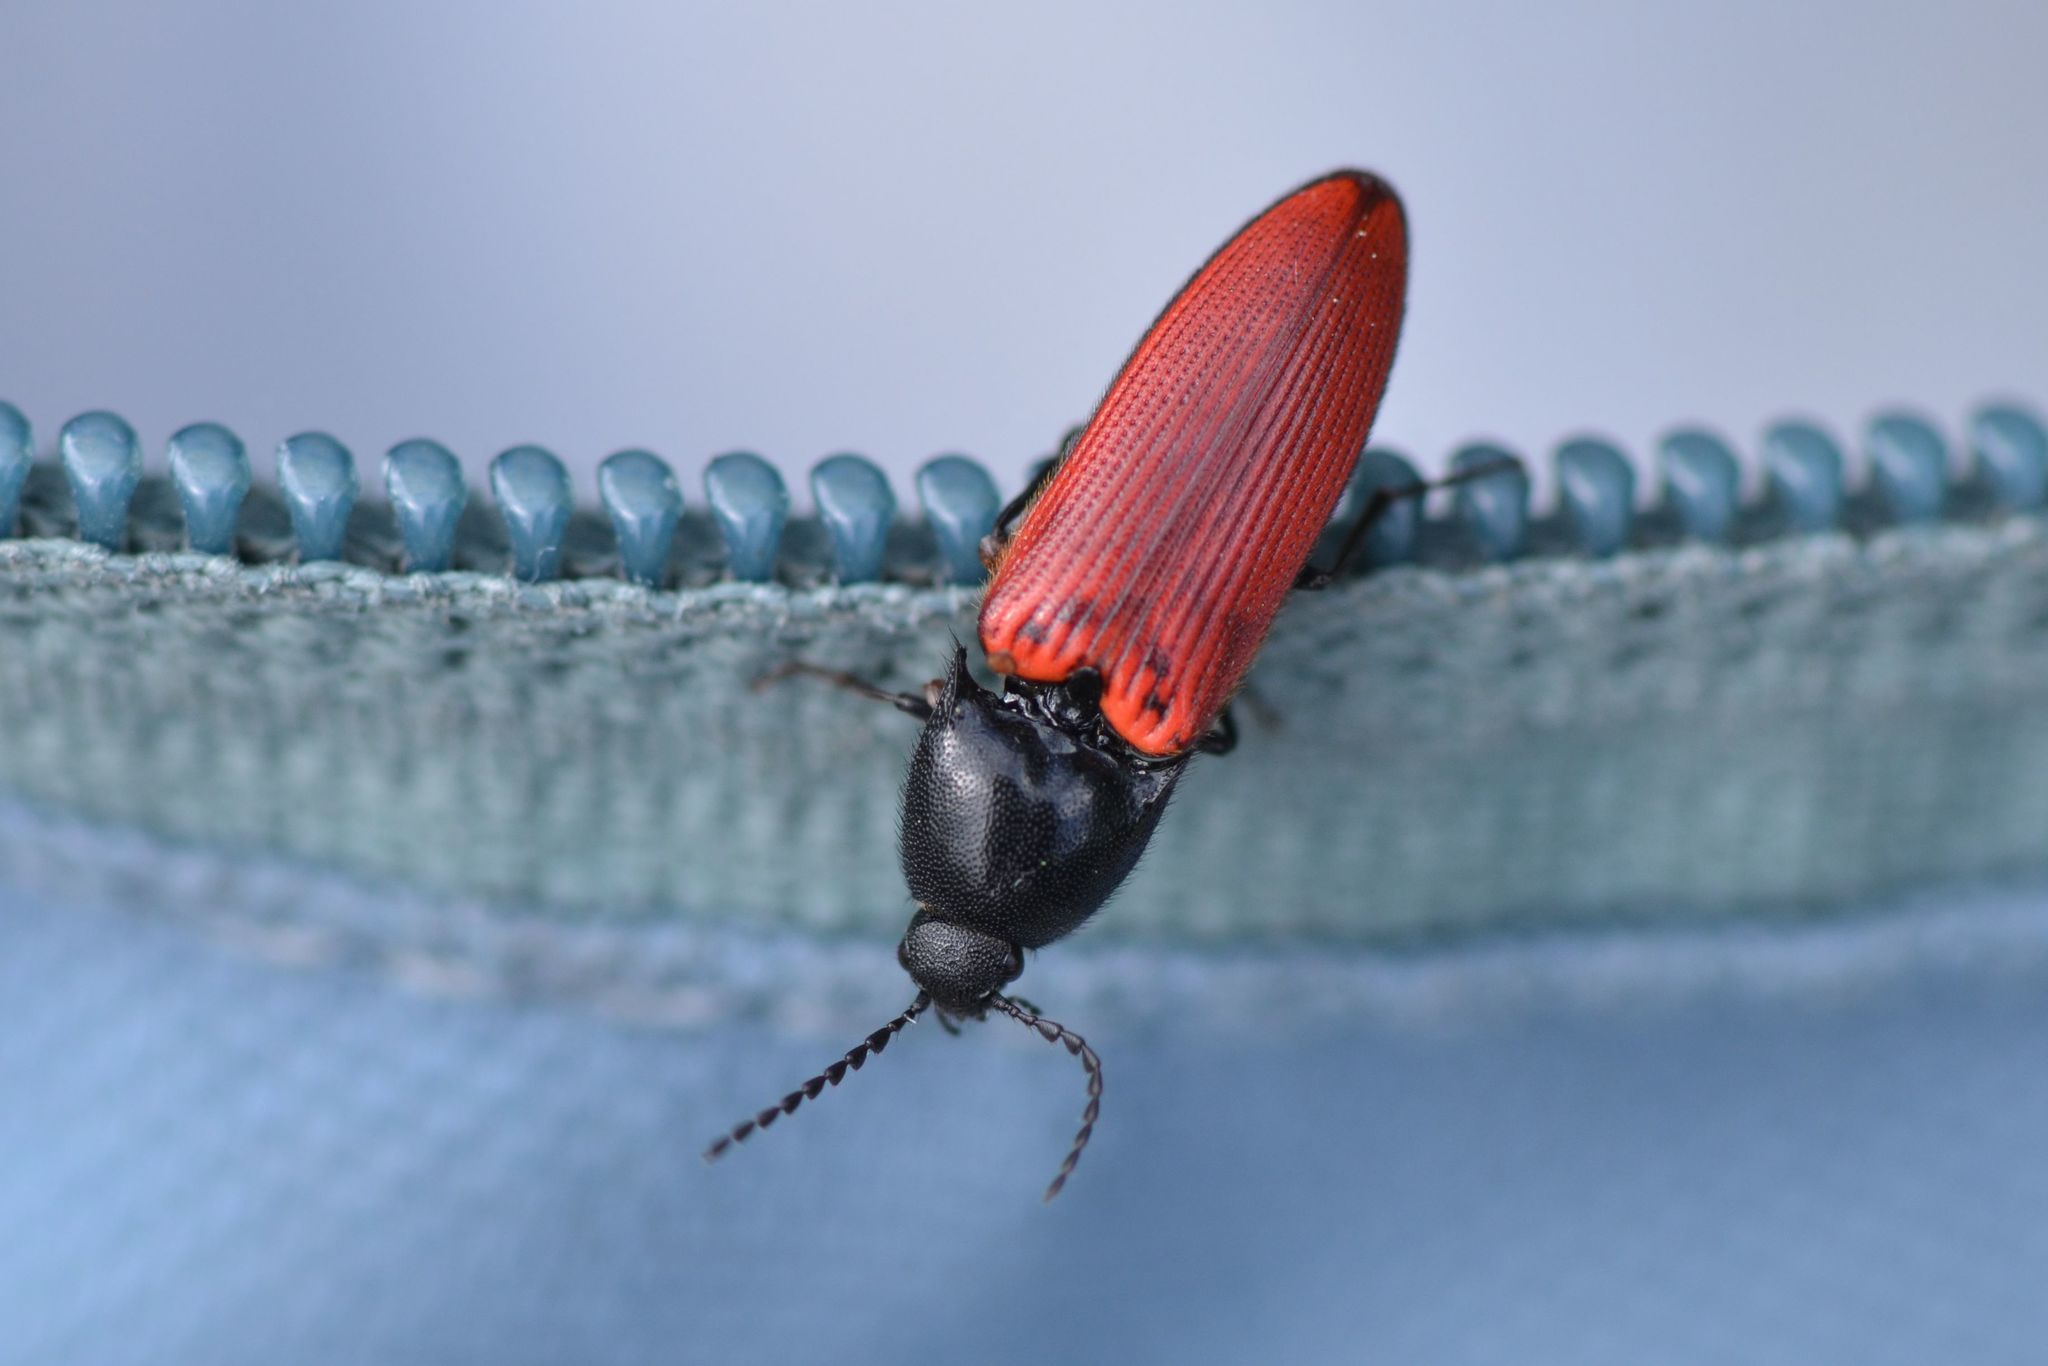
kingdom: Animalia
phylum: Arthropoda
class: Insecta
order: Coleoptera
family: Elateridae
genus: Ampedus
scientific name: Ampedus sanguineus
